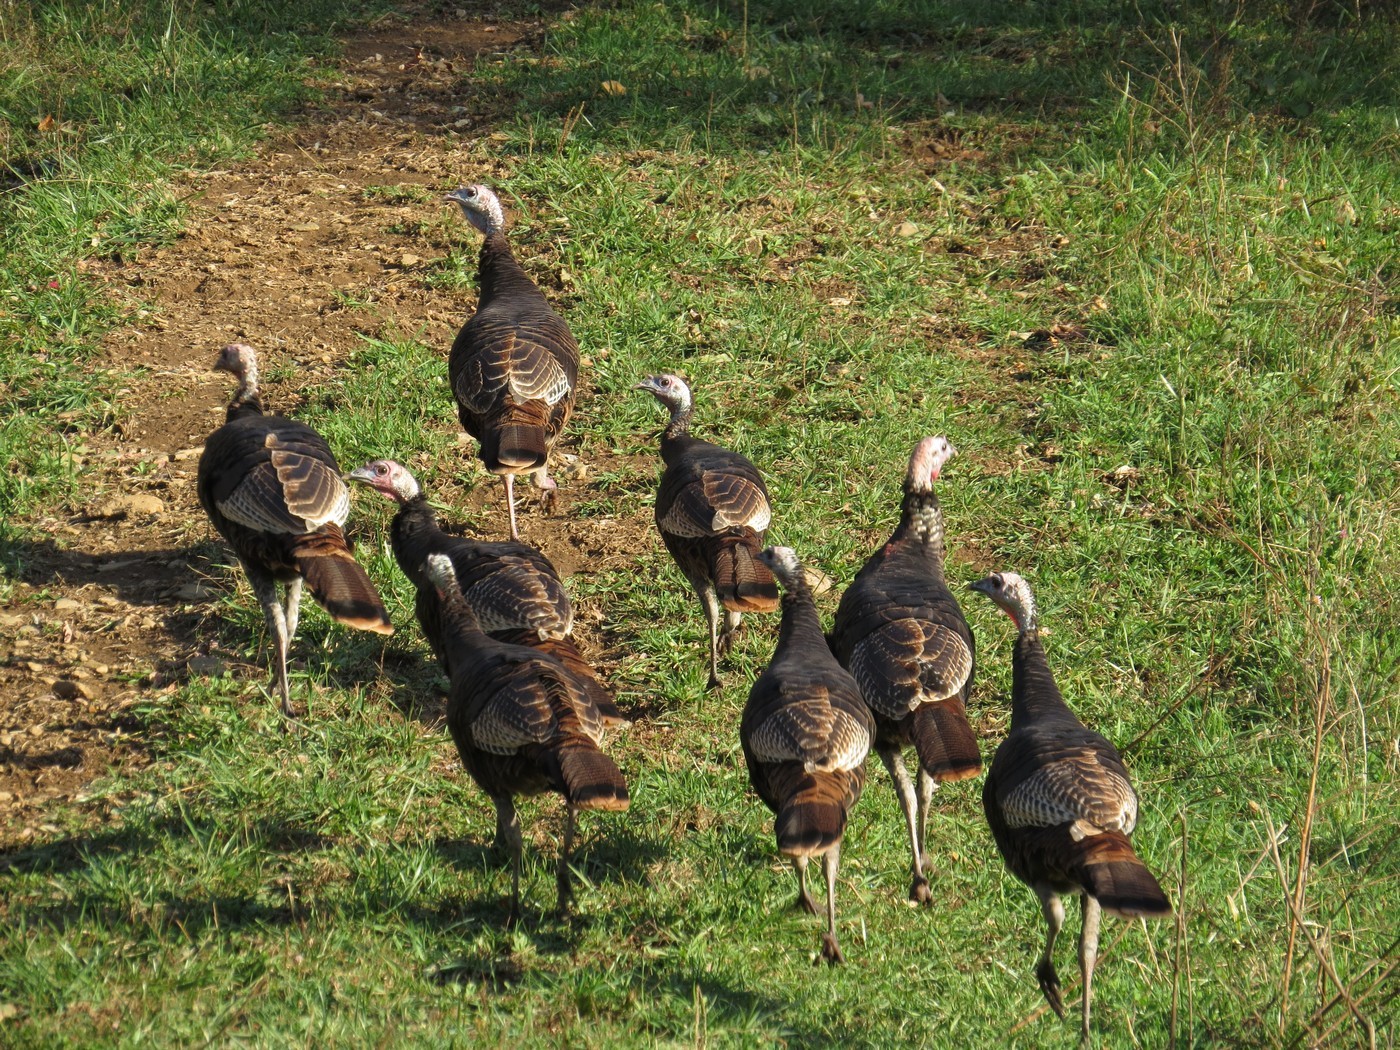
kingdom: Animalia
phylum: Chordata
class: Aves
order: Galliformes
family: Phasianidae
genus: Meleagris
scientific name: Meleagris gallopavo
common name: Wild turkey
